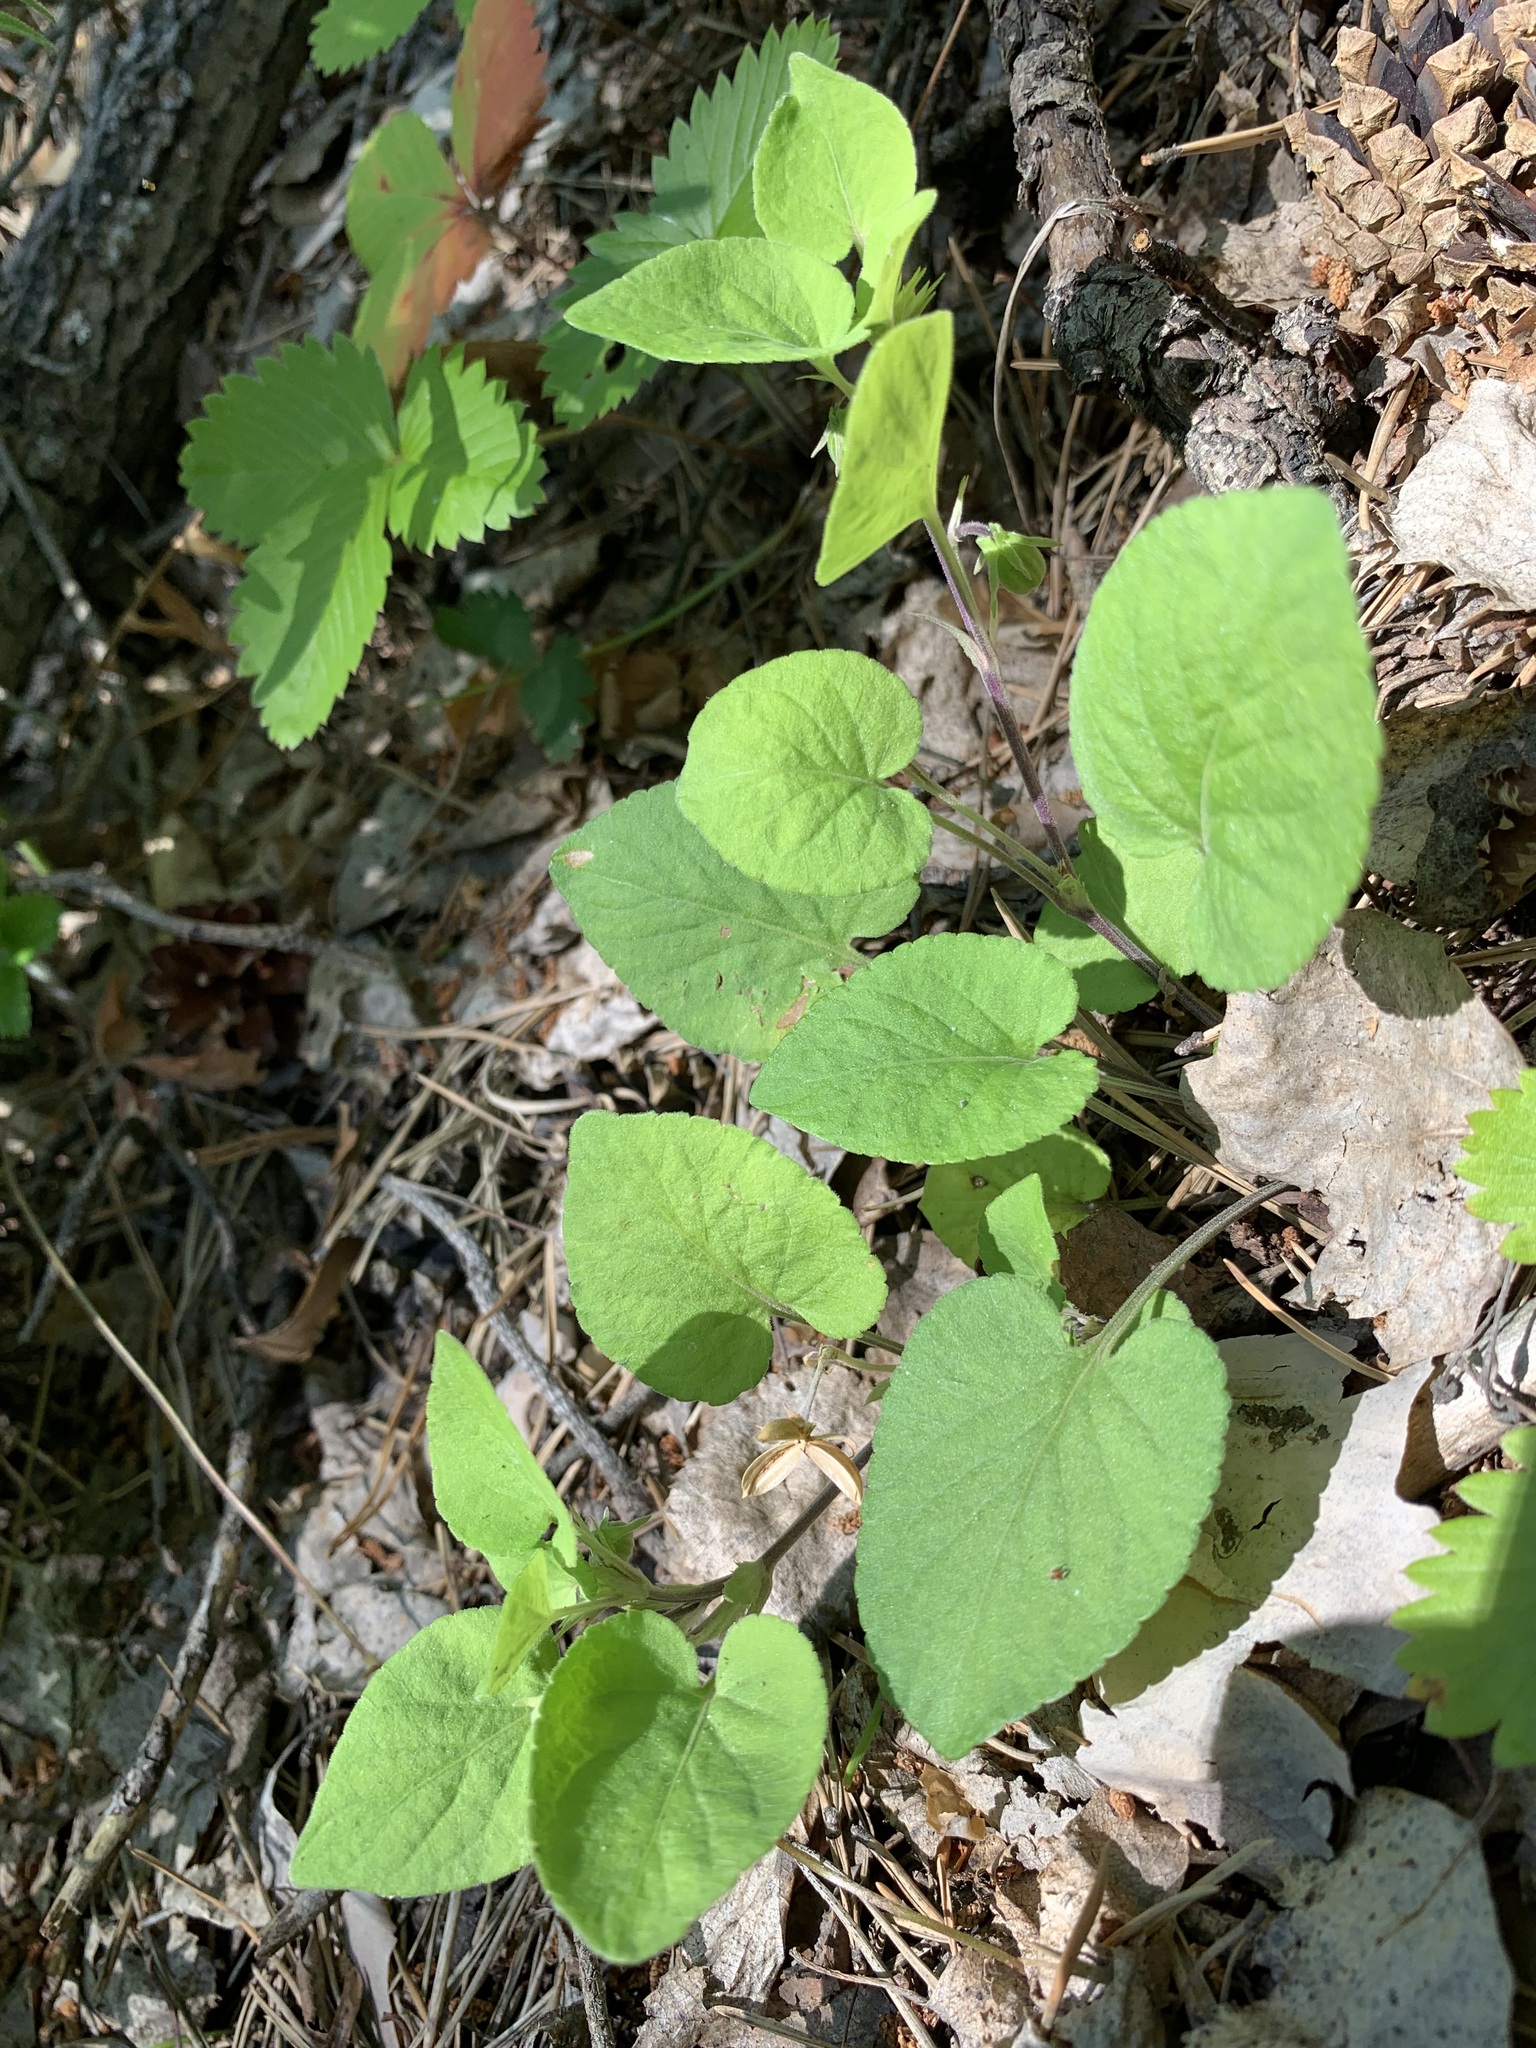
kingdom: Plantae
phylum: Tracheophyta
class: Magnoliopsida
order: Malpighiales
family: Violaceae
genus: Viola
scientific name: Viola hirta
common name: Hairy violet
